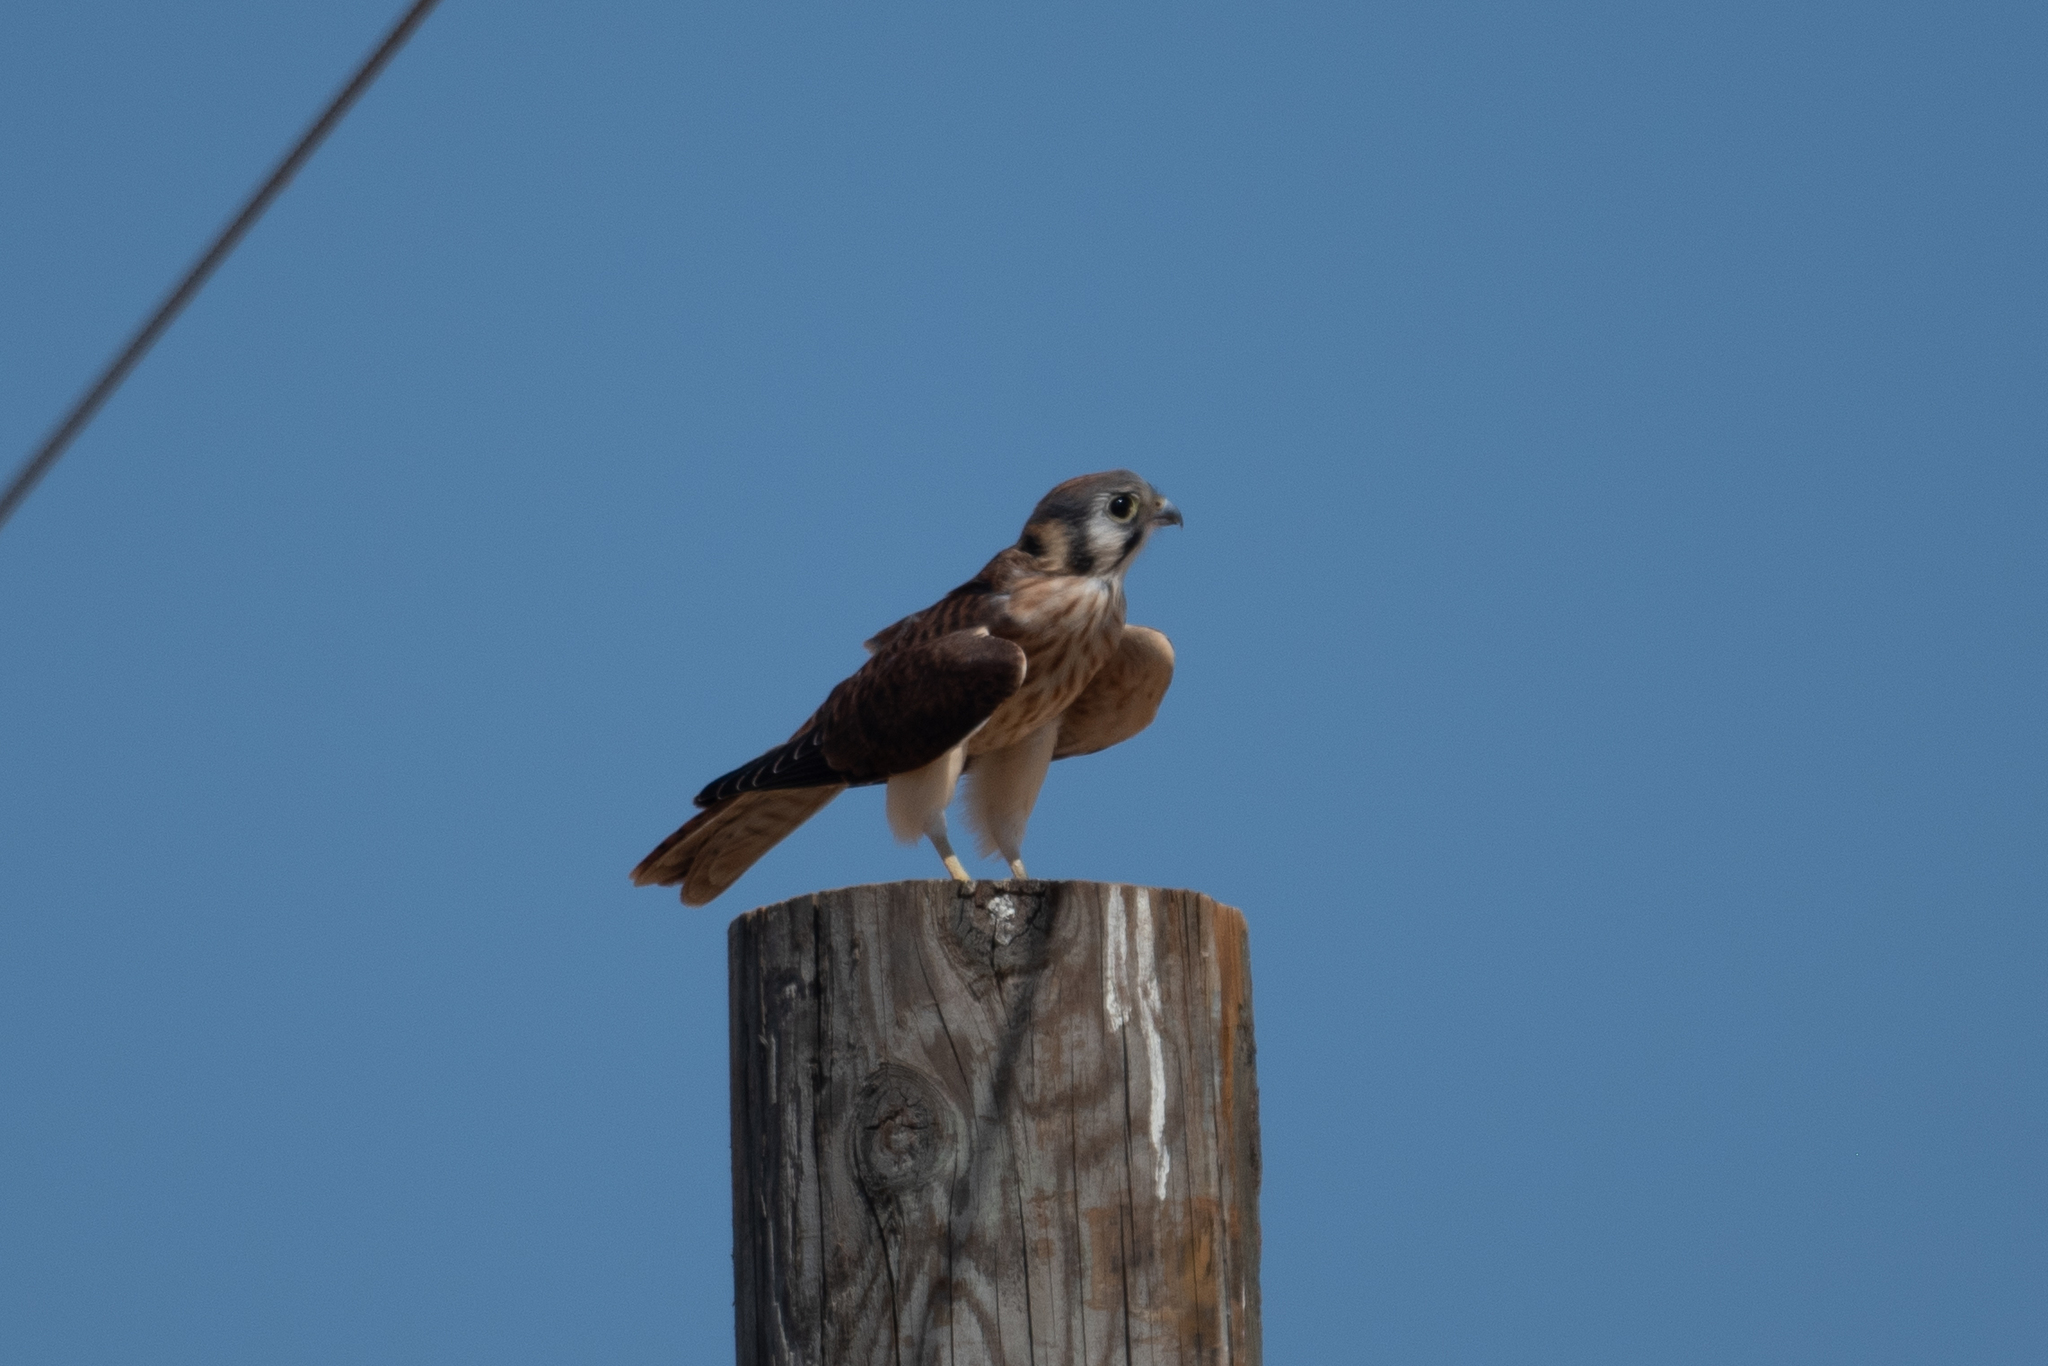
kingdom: Animalia
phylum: Chordata
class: Aves
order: Falconiformes
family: Falconidae
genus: Falco
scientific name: Falco sparverius
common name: American kestrel
